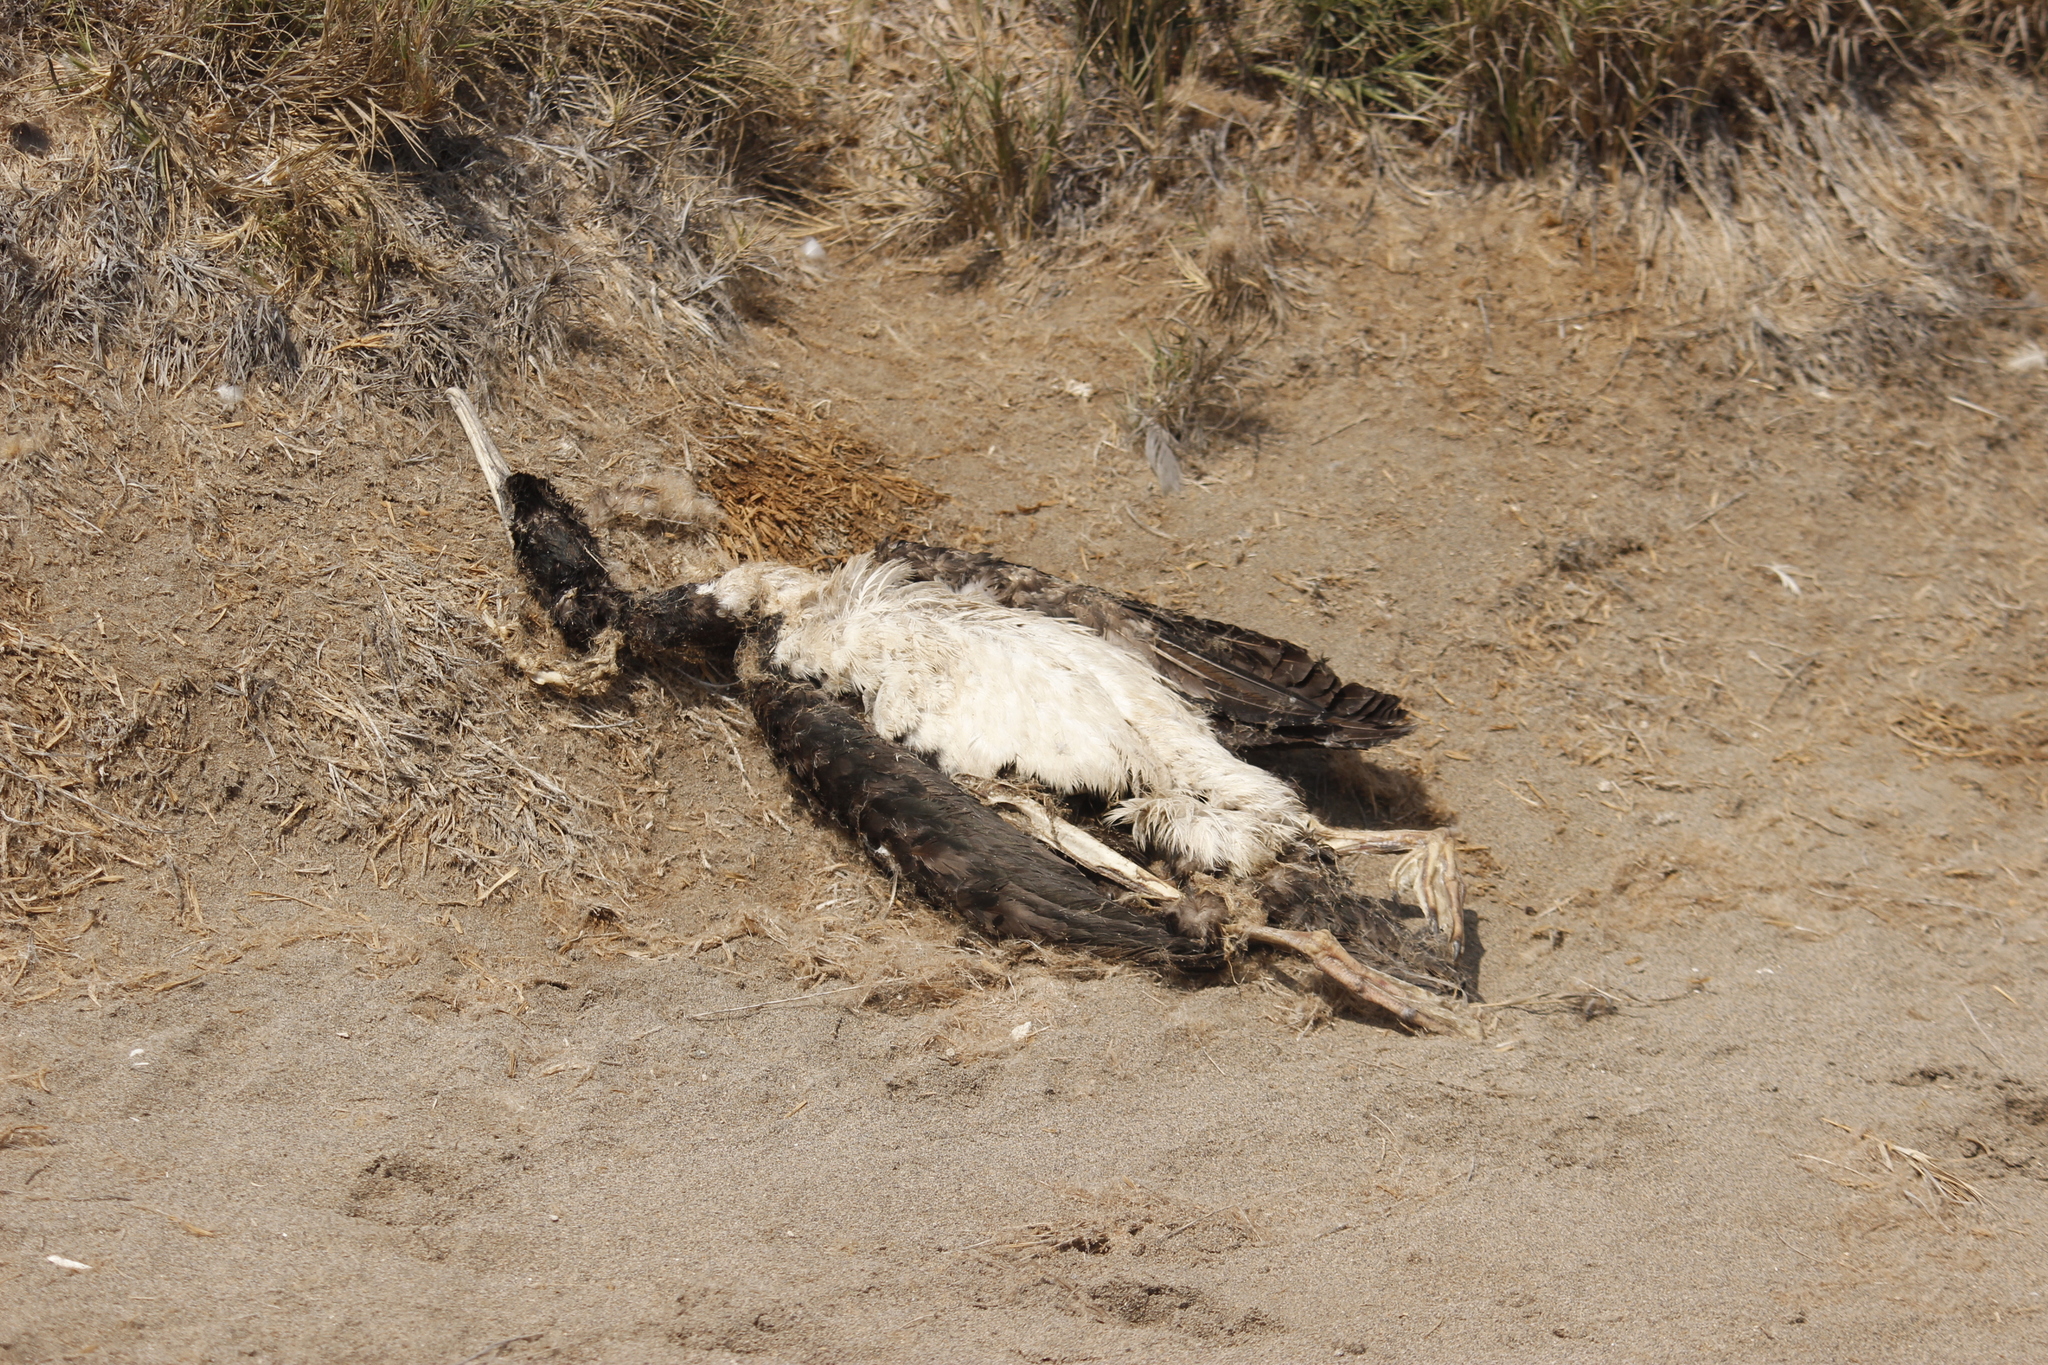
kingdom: Animalia
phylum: Chordata
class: Aves
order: Suliformes
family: Phalacrocoracidae
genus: Leucocarbo
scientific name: Leucocarbo bougainvillii
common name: Guanay cormorant
